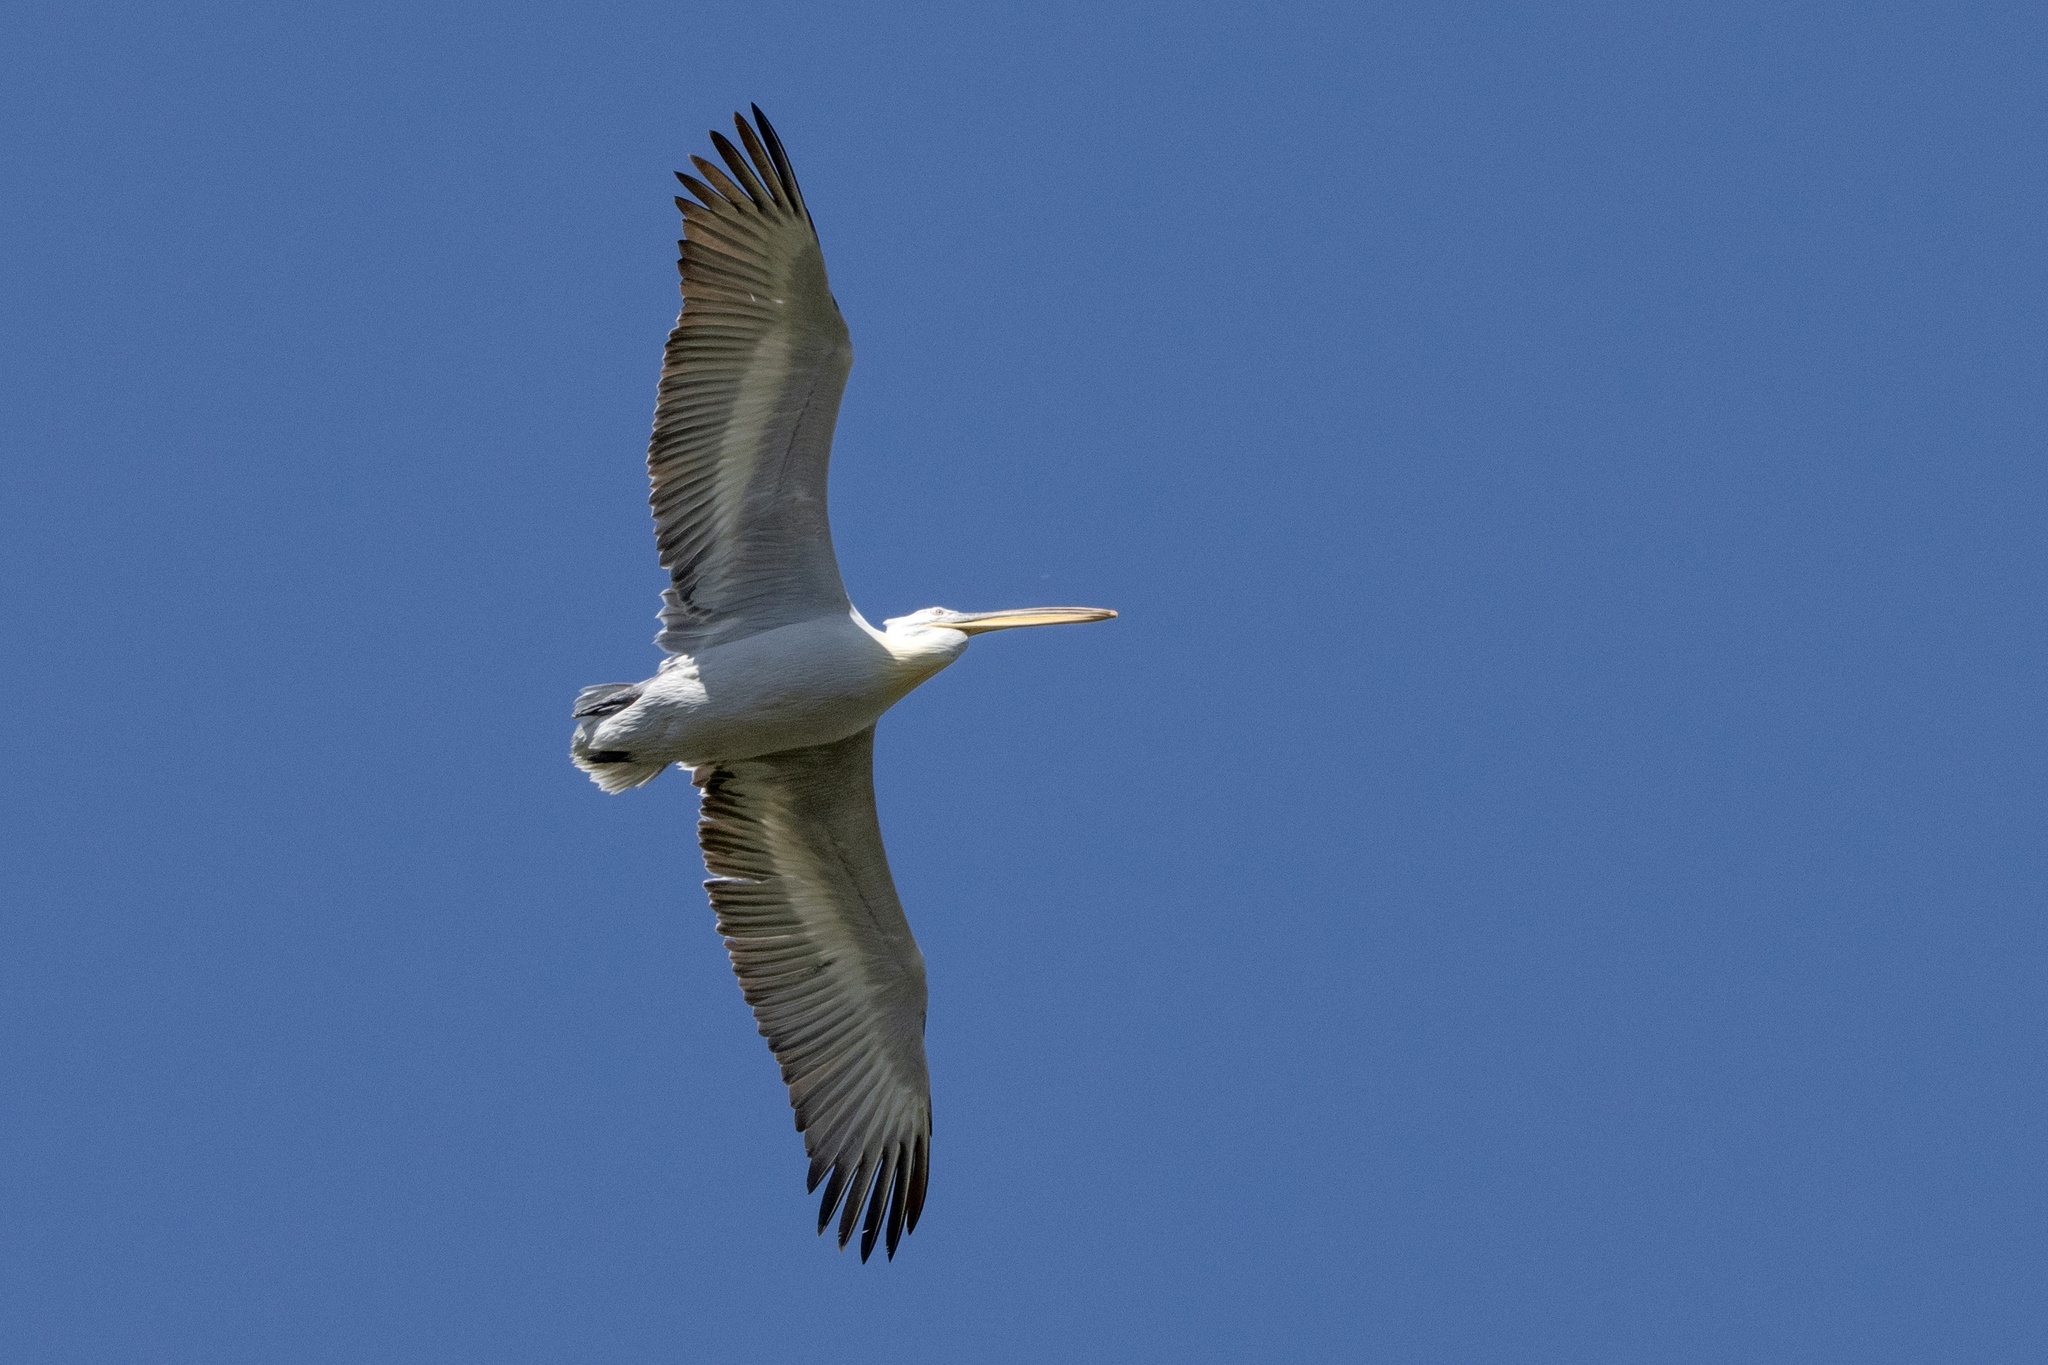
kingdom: Animalia
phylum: Chordata
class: Aves
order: Pelecaniformes
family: Pelecanidae
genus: Pelecanus
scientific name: Pelecanus crispus
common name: Dalmatian pelican
